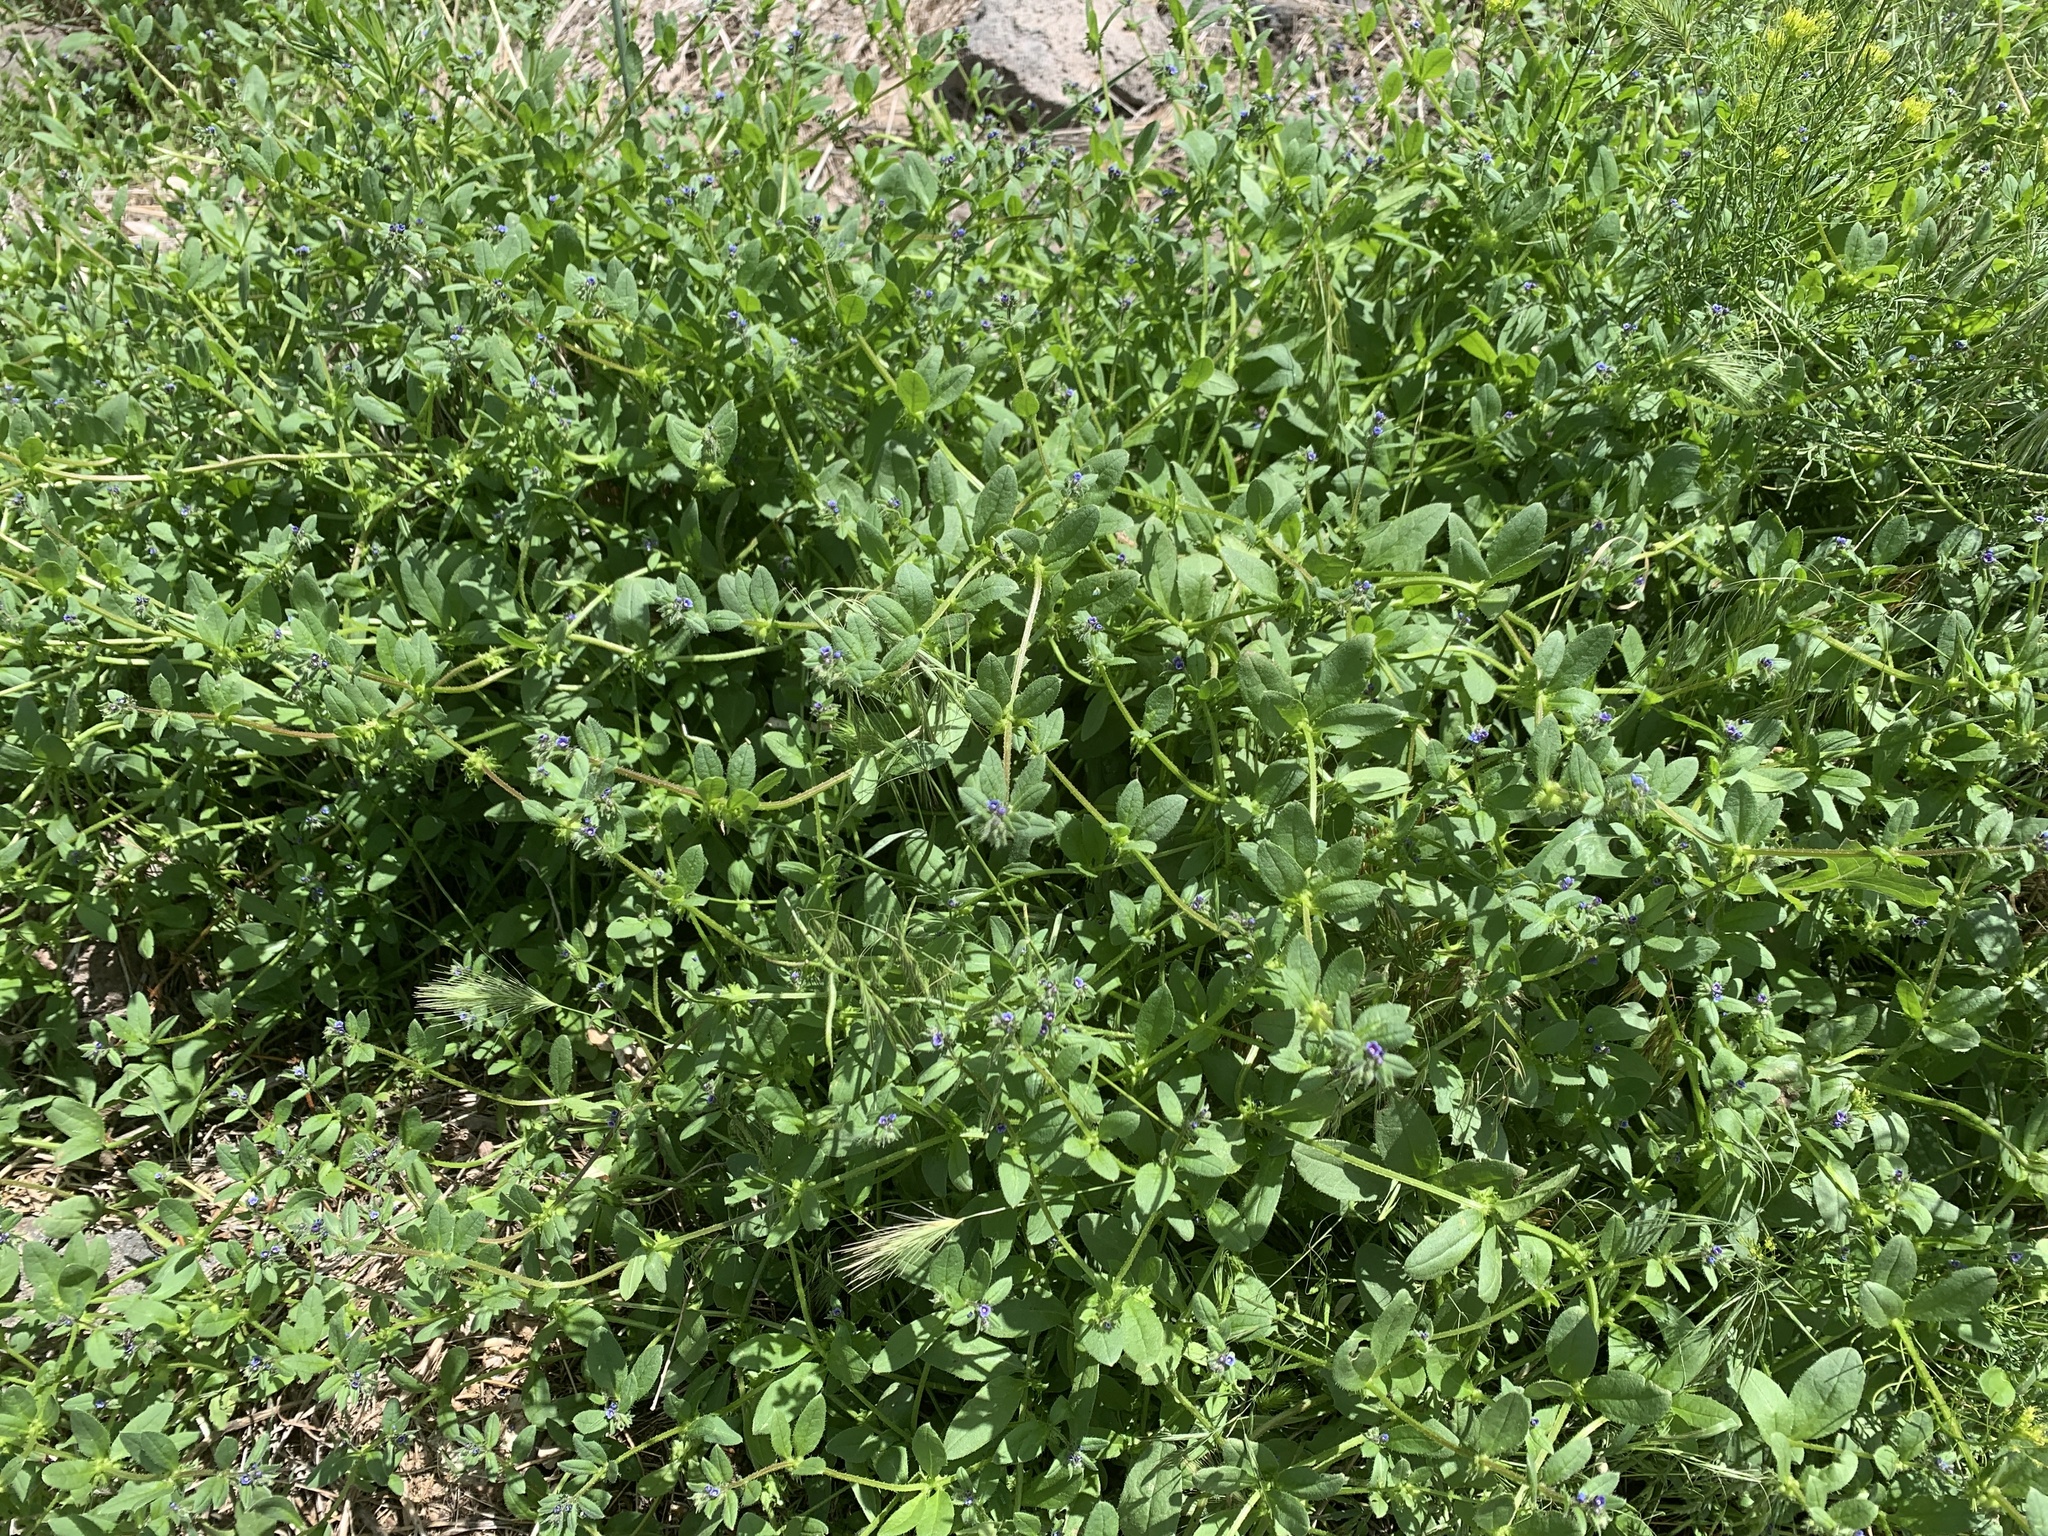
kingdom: Plantae
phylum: Tracheophyta
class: Magnoliopsida
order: Boraginales
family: Boraginaceae
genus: Asperugo
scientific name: Asperugo procumbens
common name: Madwort
